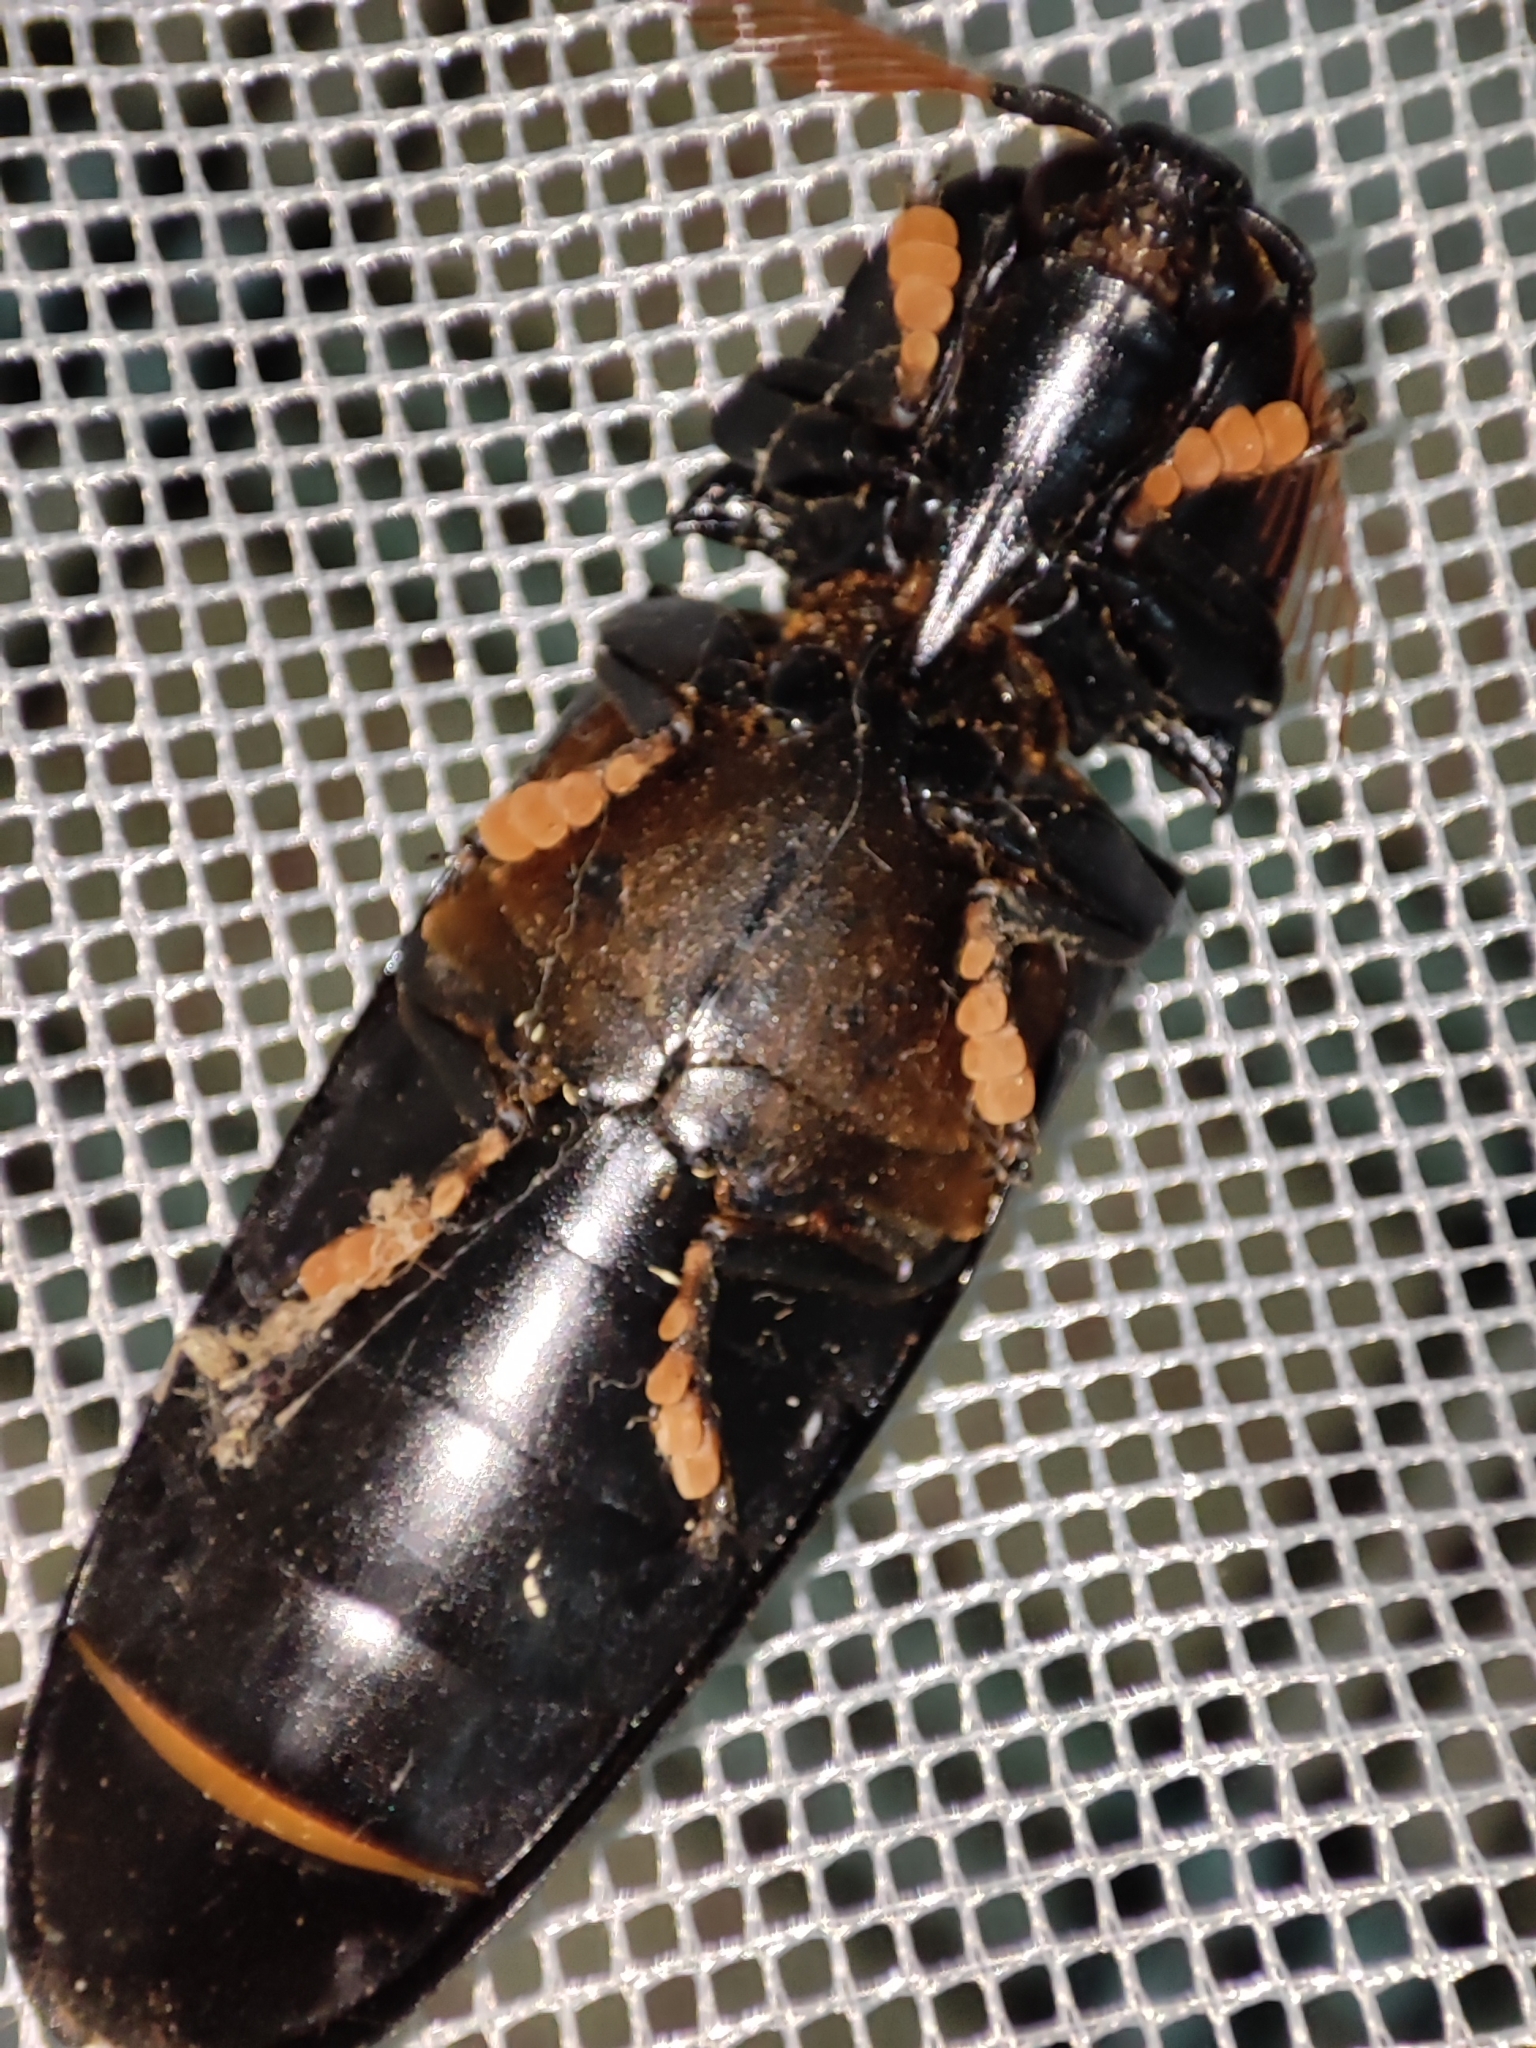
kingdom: Animalia
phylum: Arthropoda
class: Insecta
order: Coleoptera
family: Elateridae
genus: Sinelater
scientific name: Sinelater perroti
